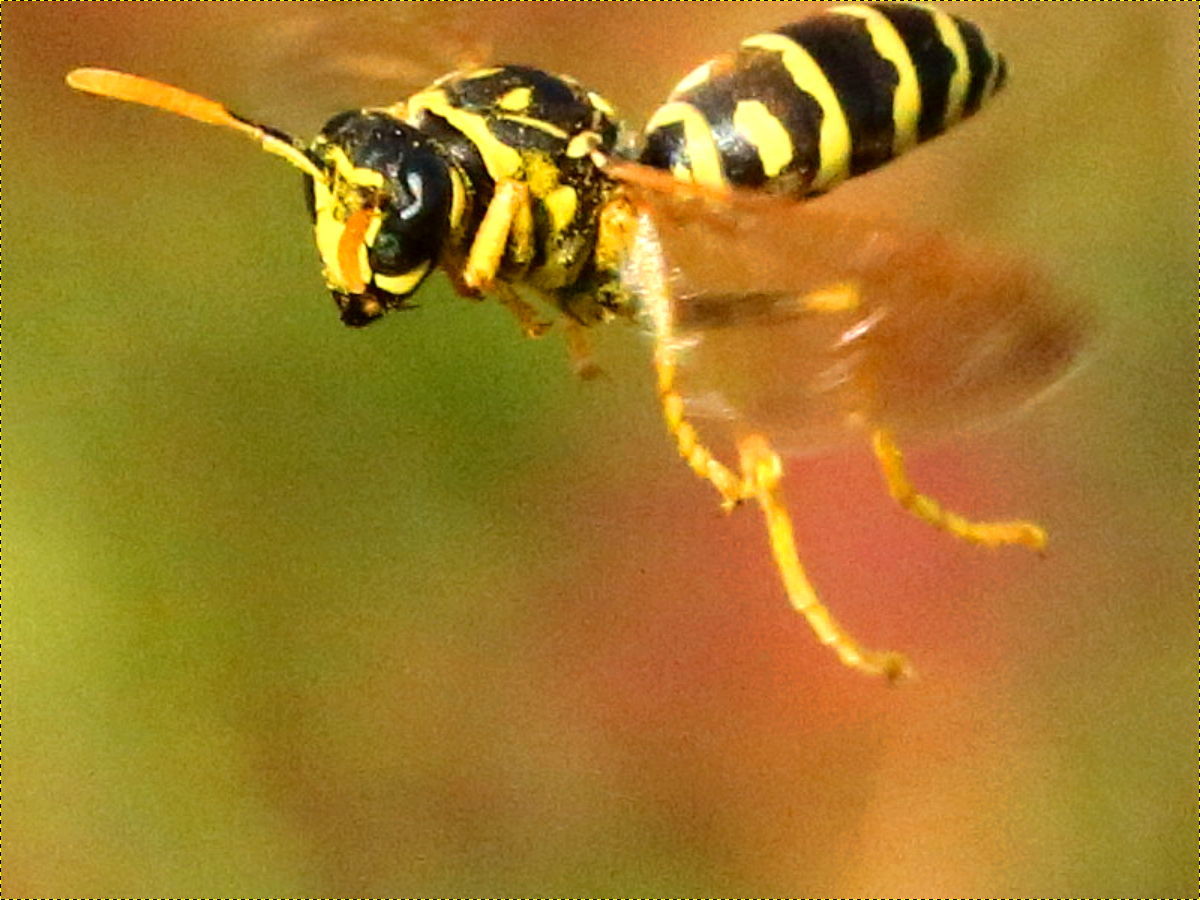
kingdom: Animalia
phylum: Arthropoda
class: Insecta
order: Hymenoptera
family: Eumenidae
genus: Polistes
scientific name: Polistes dominula
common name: Paper wasp
